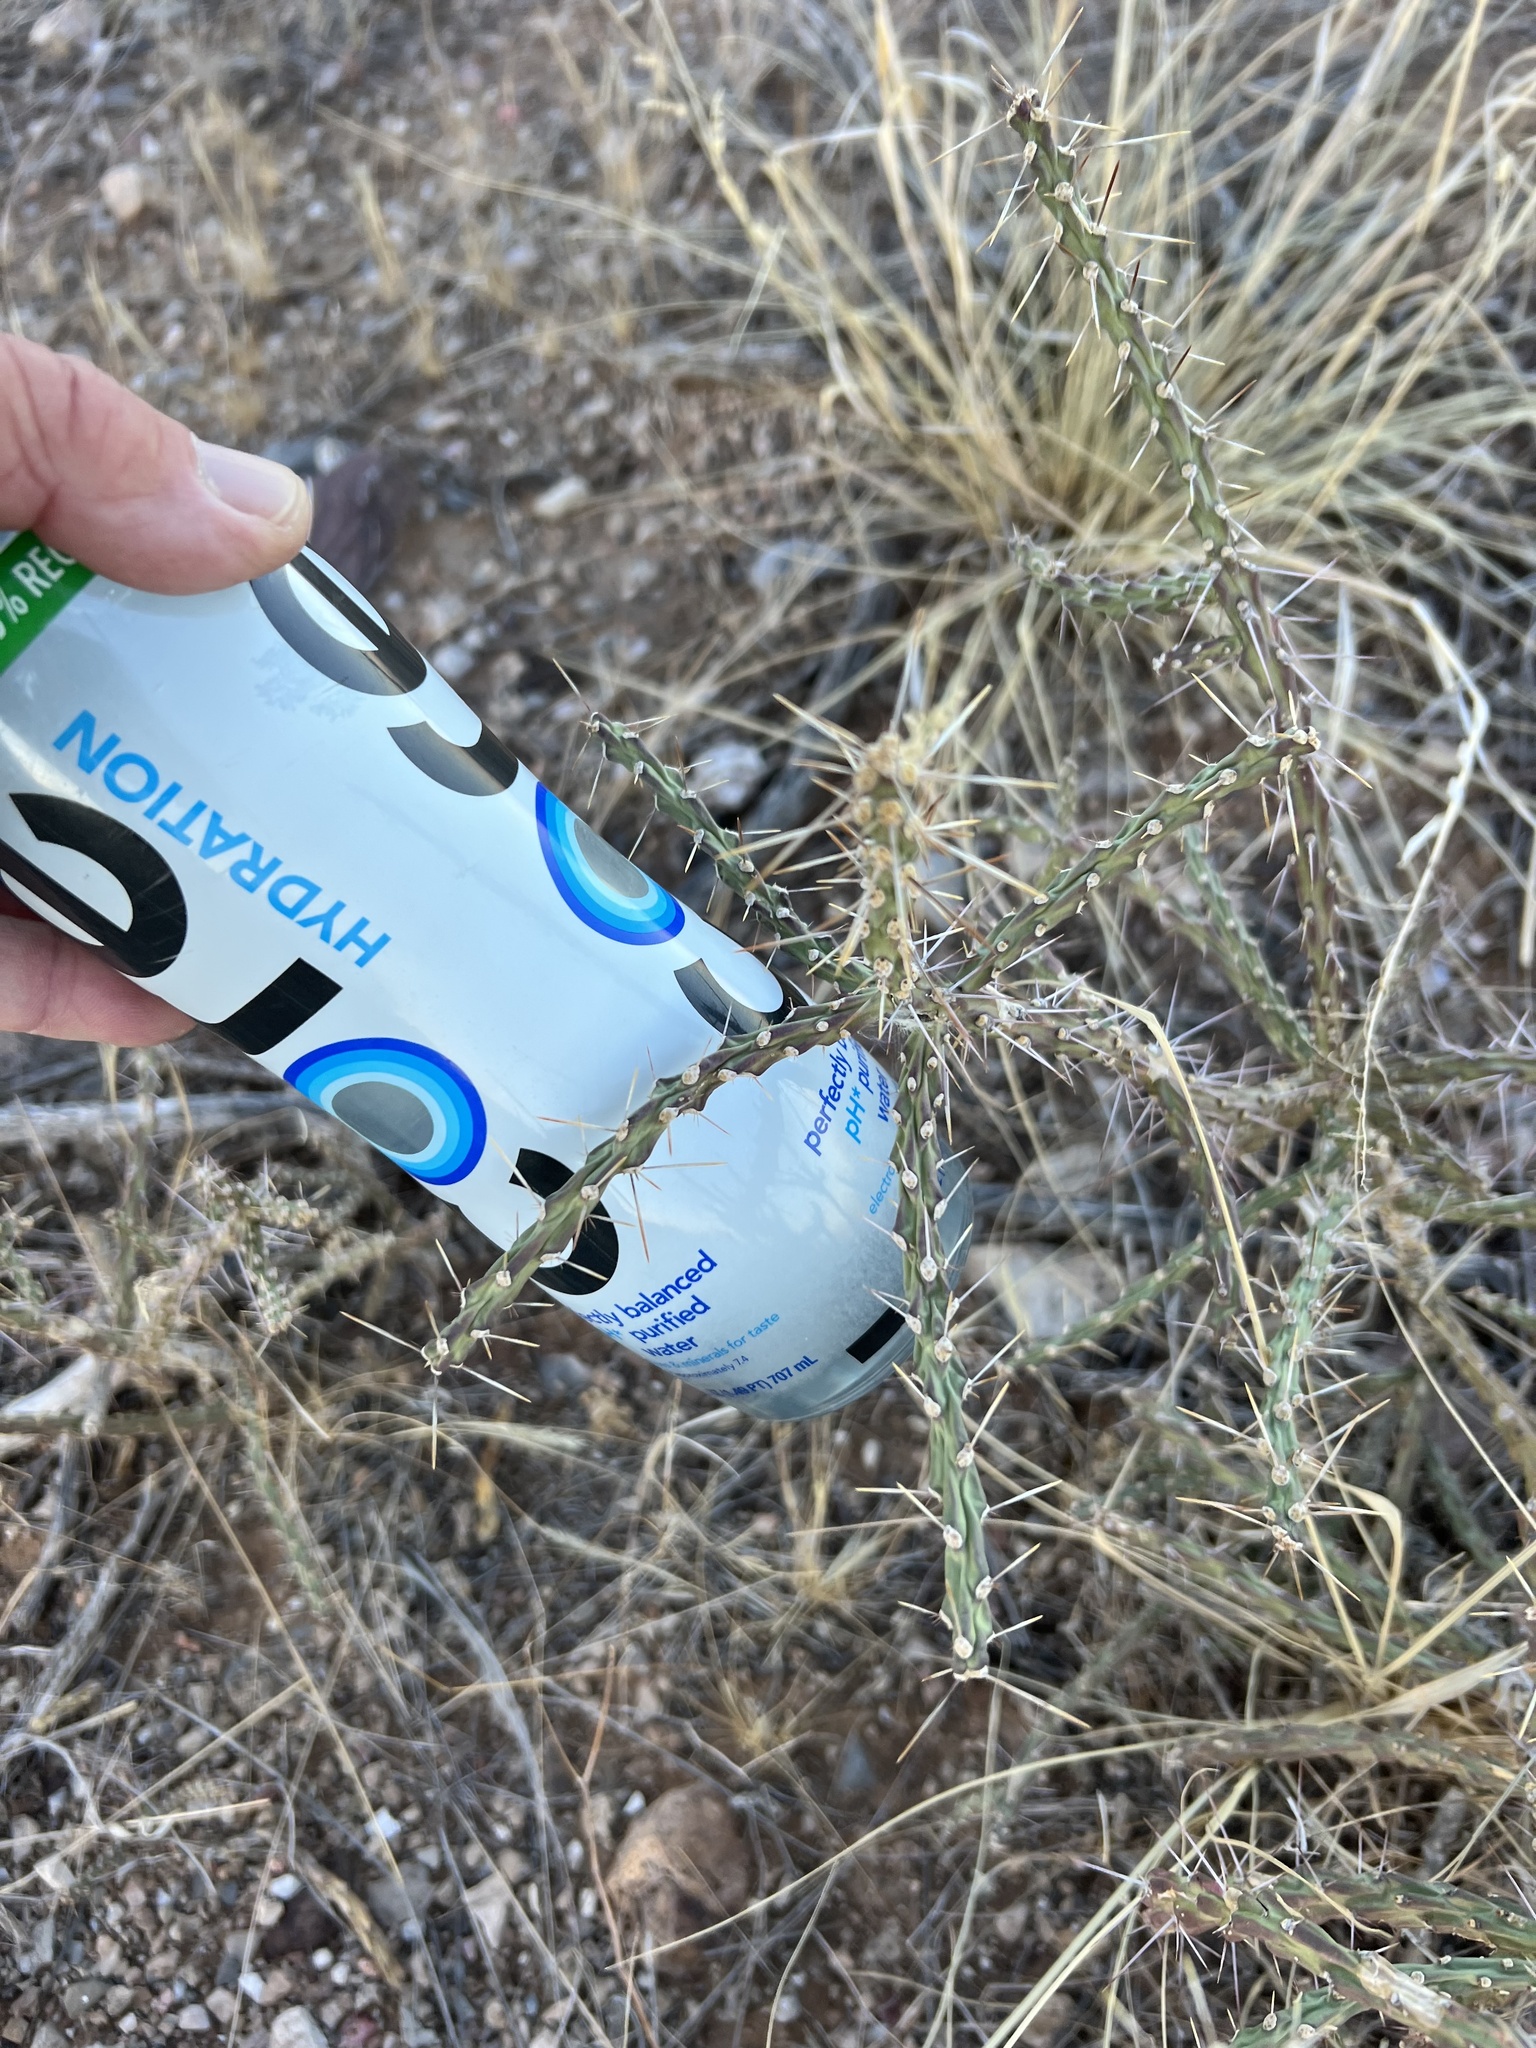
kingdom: Plantae
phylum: Tracheophyta
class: Magnoliopsida
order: Caryophyllales
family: Cactaceae
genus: Cylindropuntia
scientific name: Cylindropuntia leptocaulis
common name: Christmas cactus
